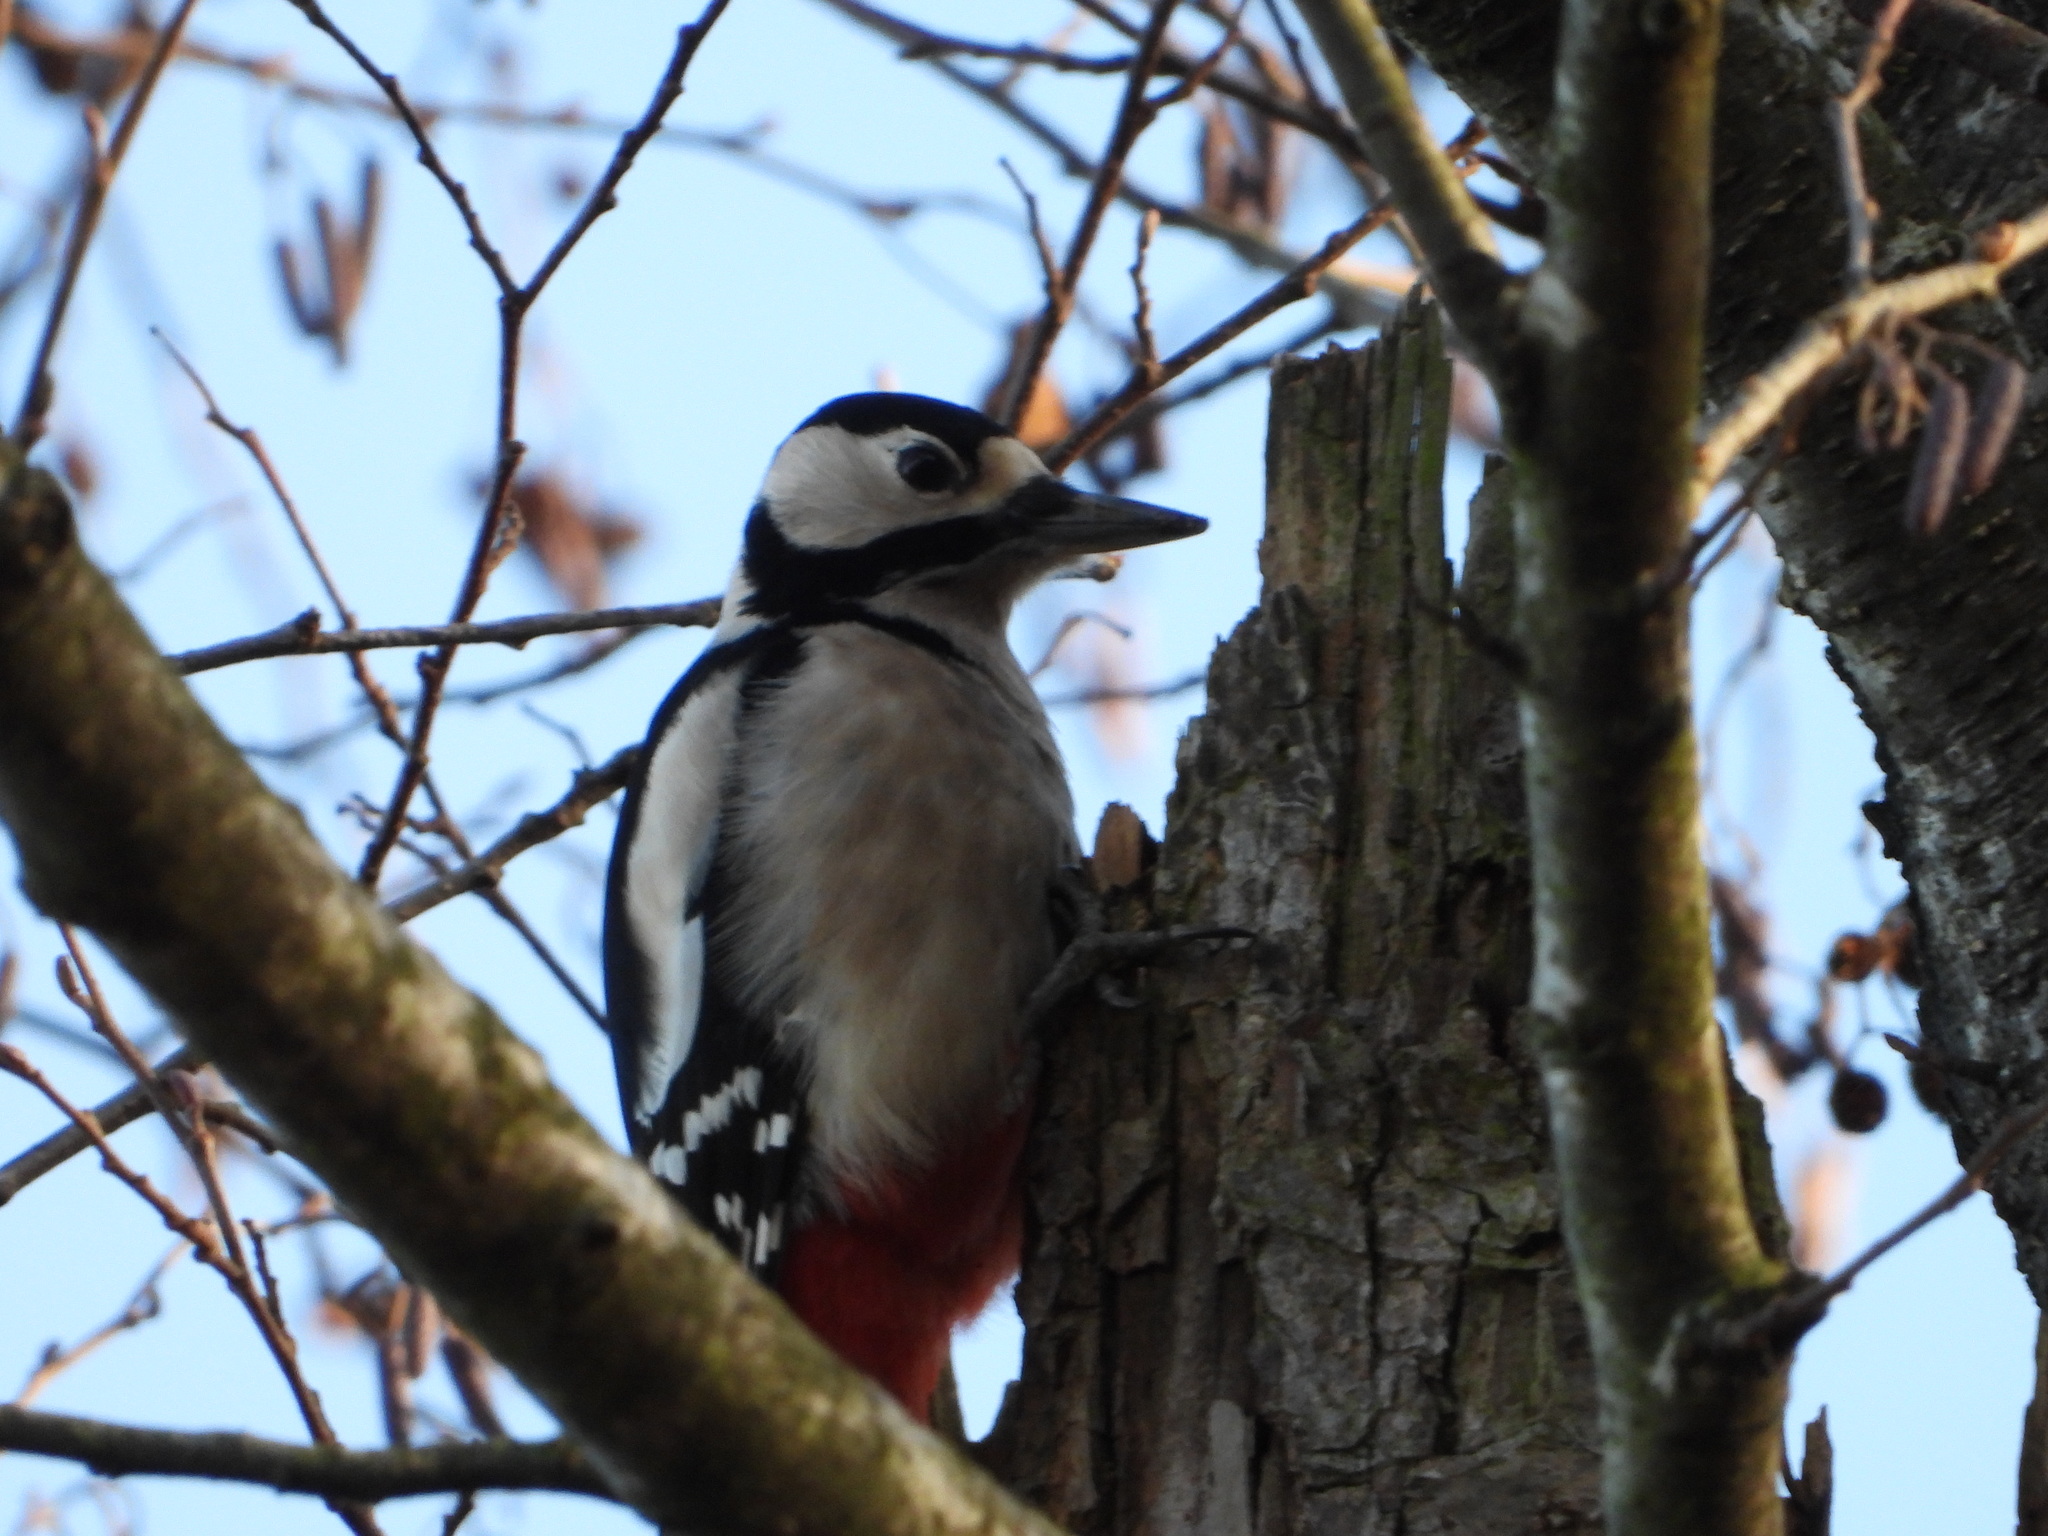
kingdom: Animalia
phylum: Chordata
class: Aves
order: Piciformes
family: Picidae
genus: Dendrocopos
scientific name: Dendrocopos major
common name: Great spotted woodpecker
